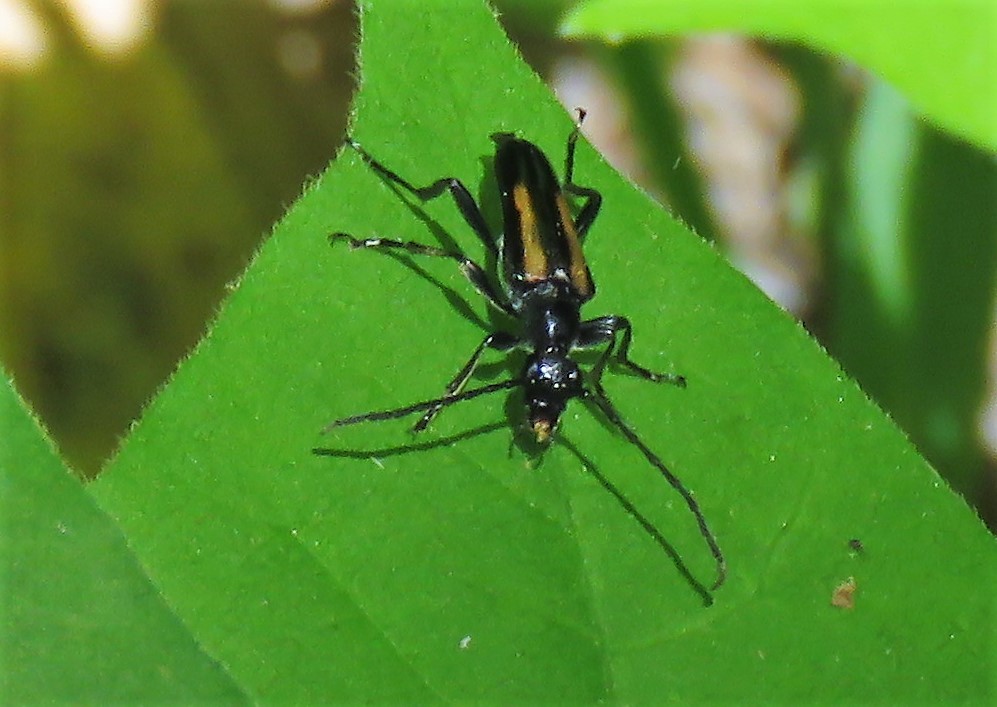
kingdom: Animalia
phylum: Arthropoda
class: Insecta
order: Coleoptera
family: Cerambycidae
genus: Strangalepta
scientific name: Strangalepta abbreviata
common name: Strangalepta flower longhorn beetle
